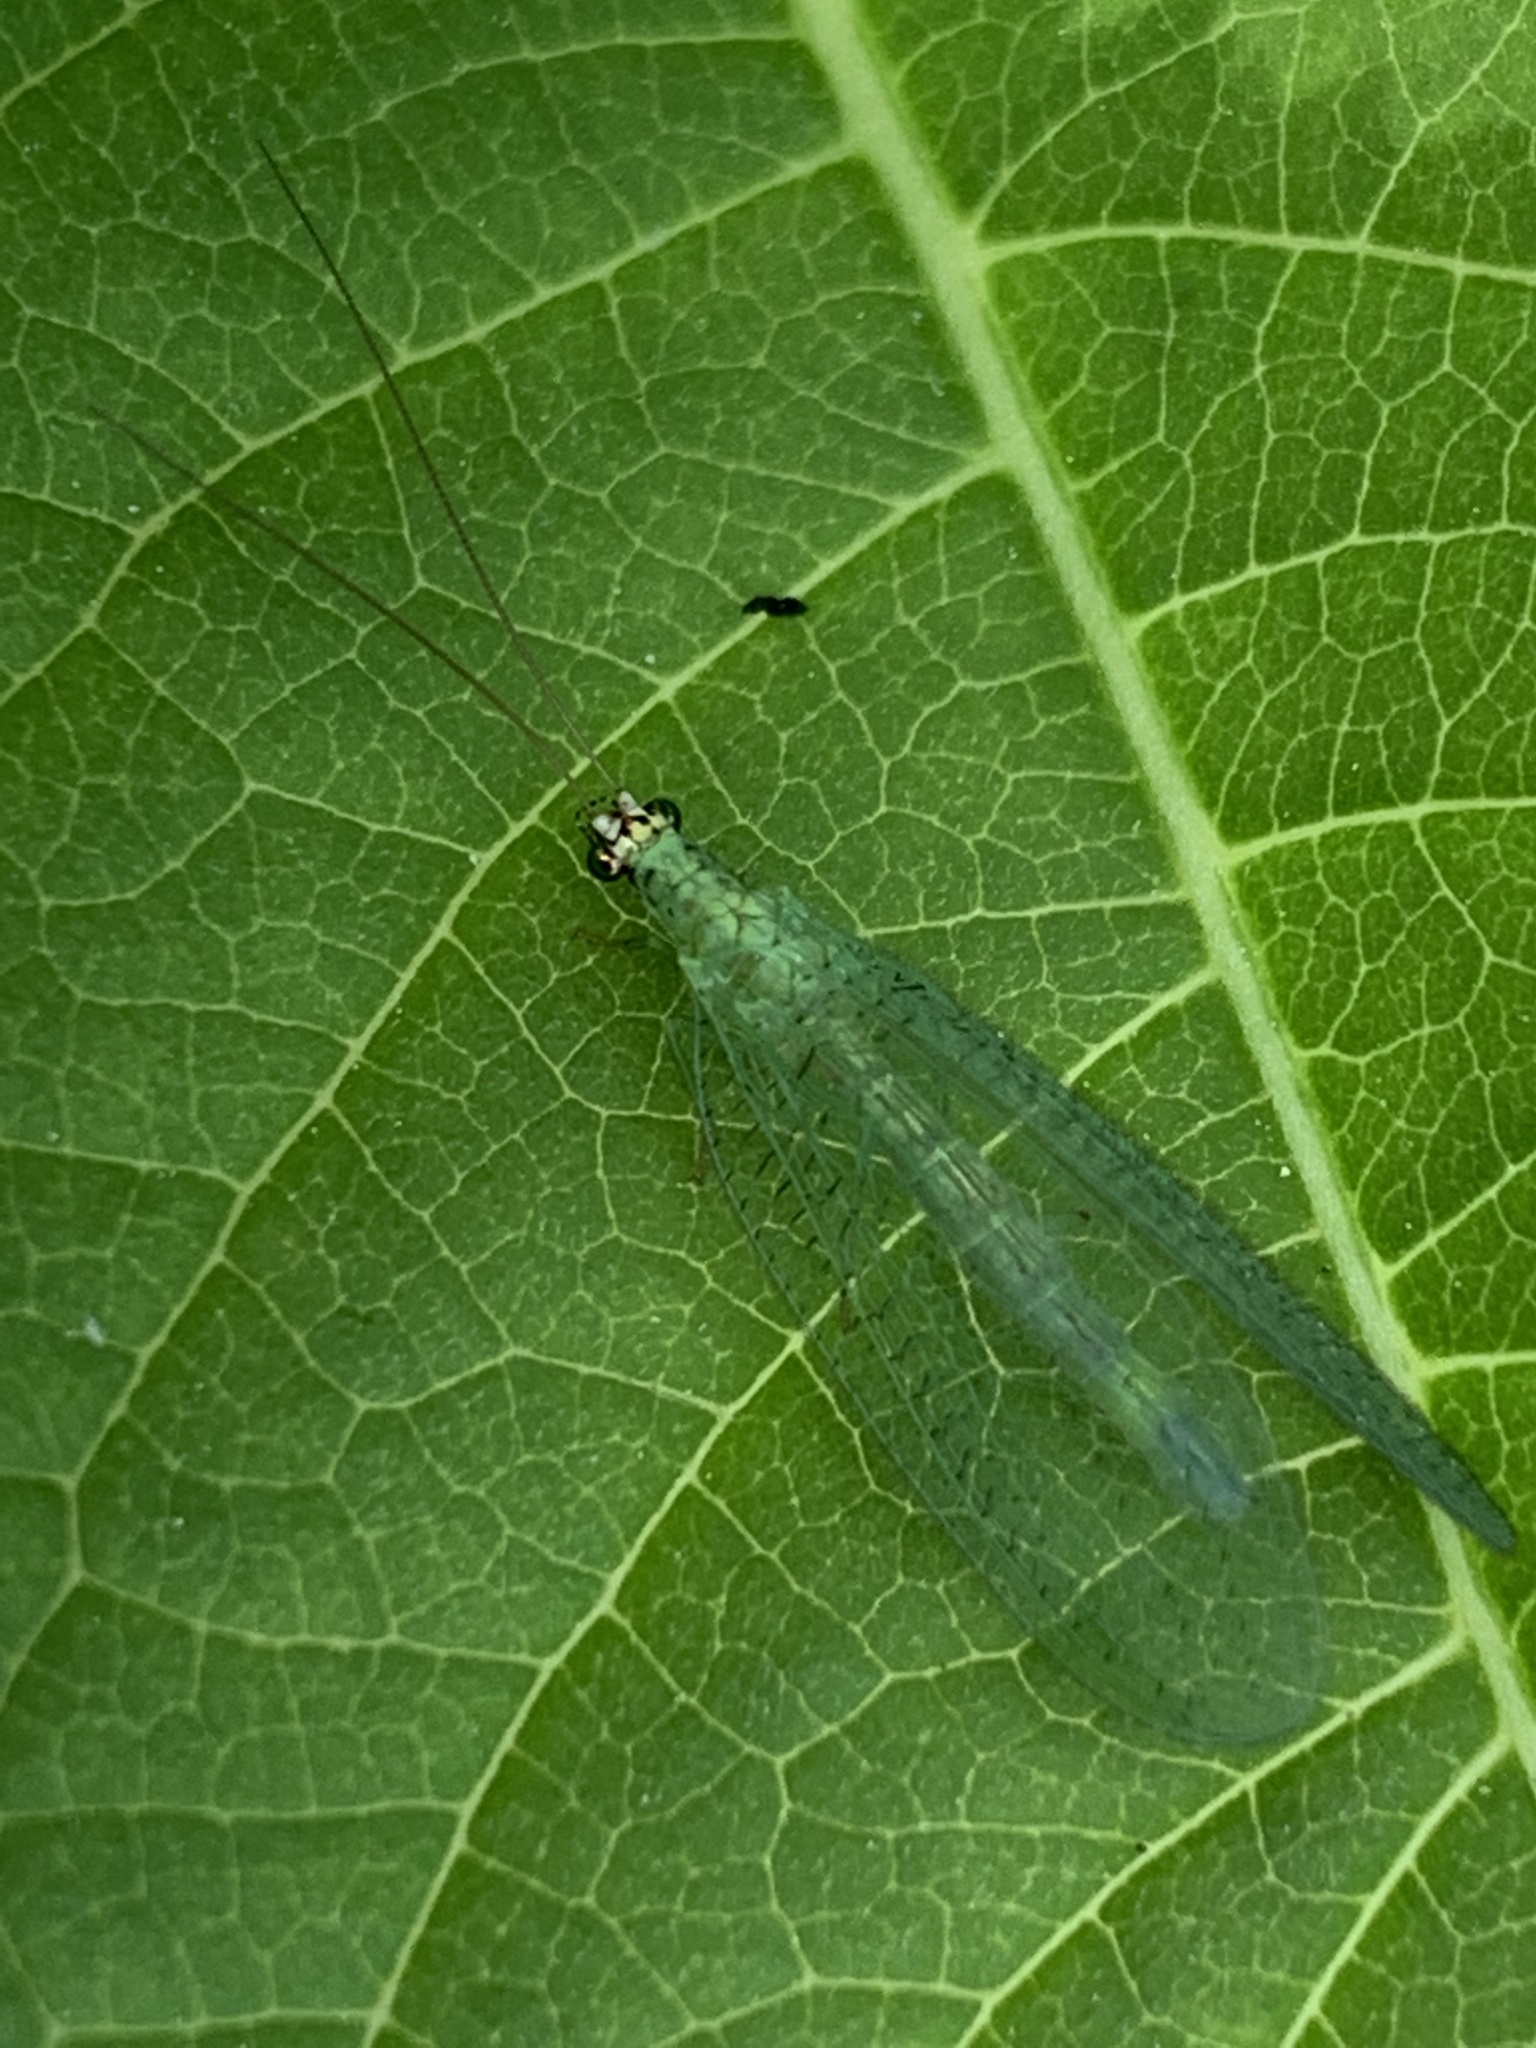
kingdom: Animalia
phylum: Arthropoda
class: Insecta
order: Neuroptera
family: Chrysopidae
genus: Chrysopa
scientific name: Chrysopa oculata
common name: Golden-eyed lacewing
